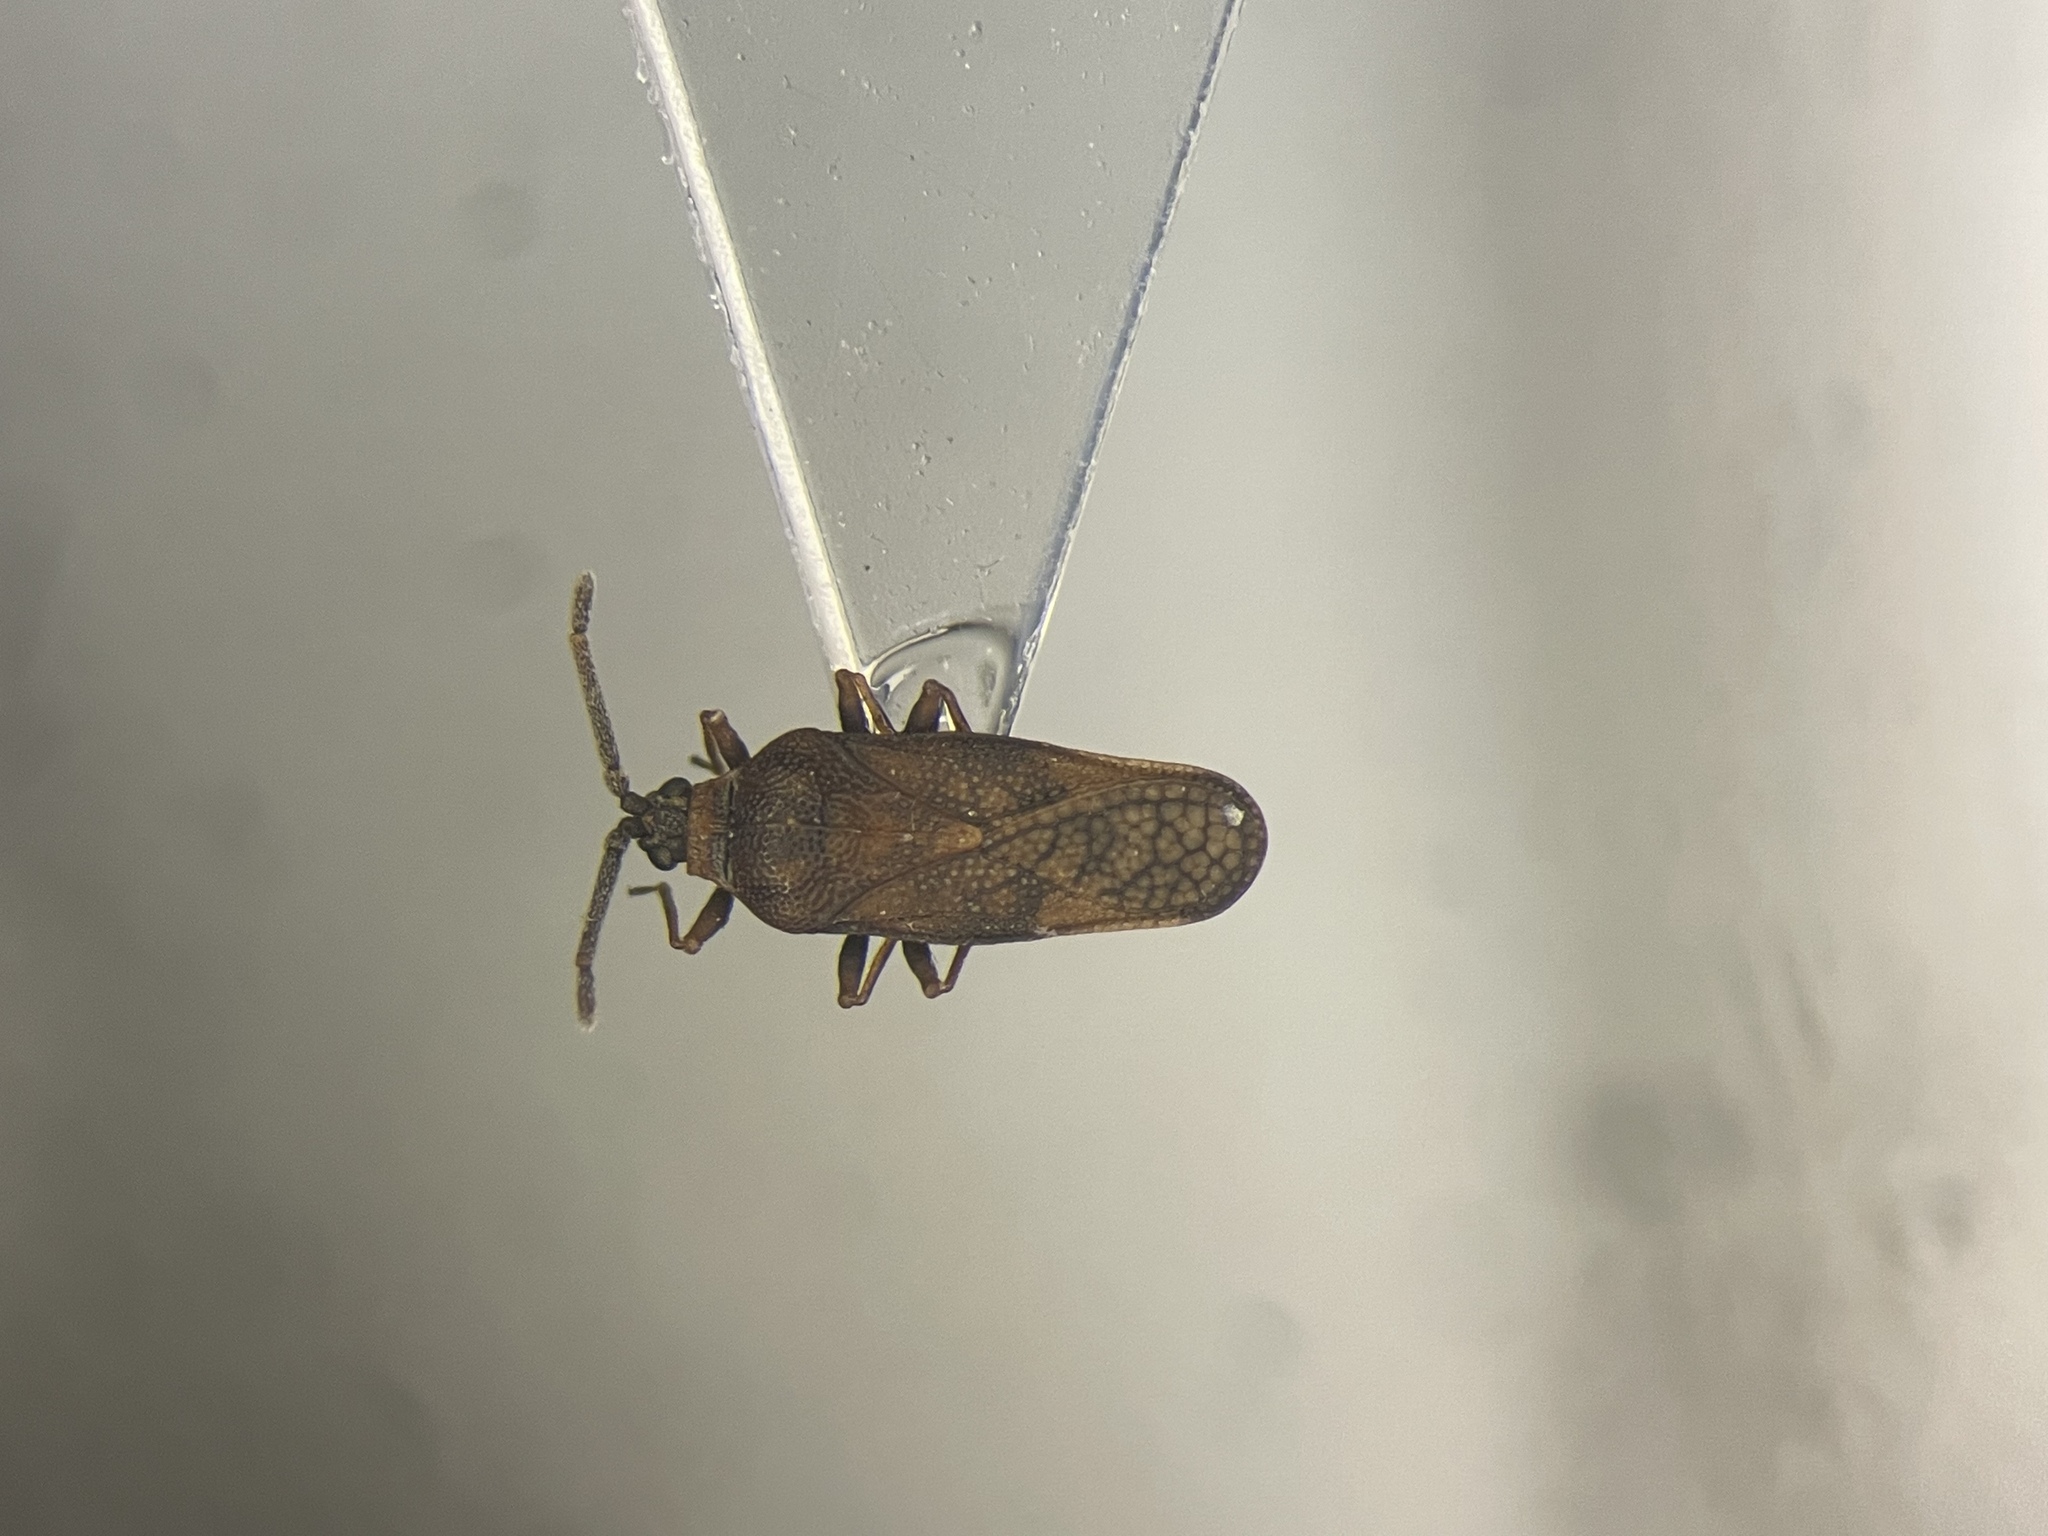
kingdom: Animalia
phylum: Arthropoda
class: Insecta
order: Hemiptera
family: Tingidae
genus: Leptoypha
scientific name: Leptoypha mutica
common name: Fringetree lace bug
